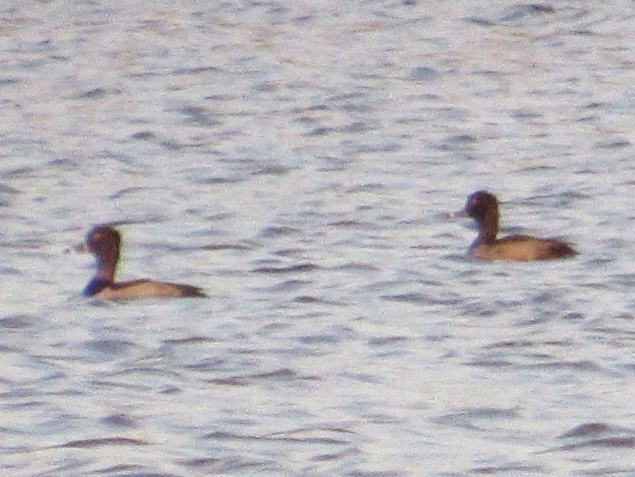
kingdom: Animalia
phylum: Chordata
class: Aves
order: Anseriformes
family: Anatidae
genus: Aythya
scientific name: Aythya collaris
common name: Ring-necked duck
